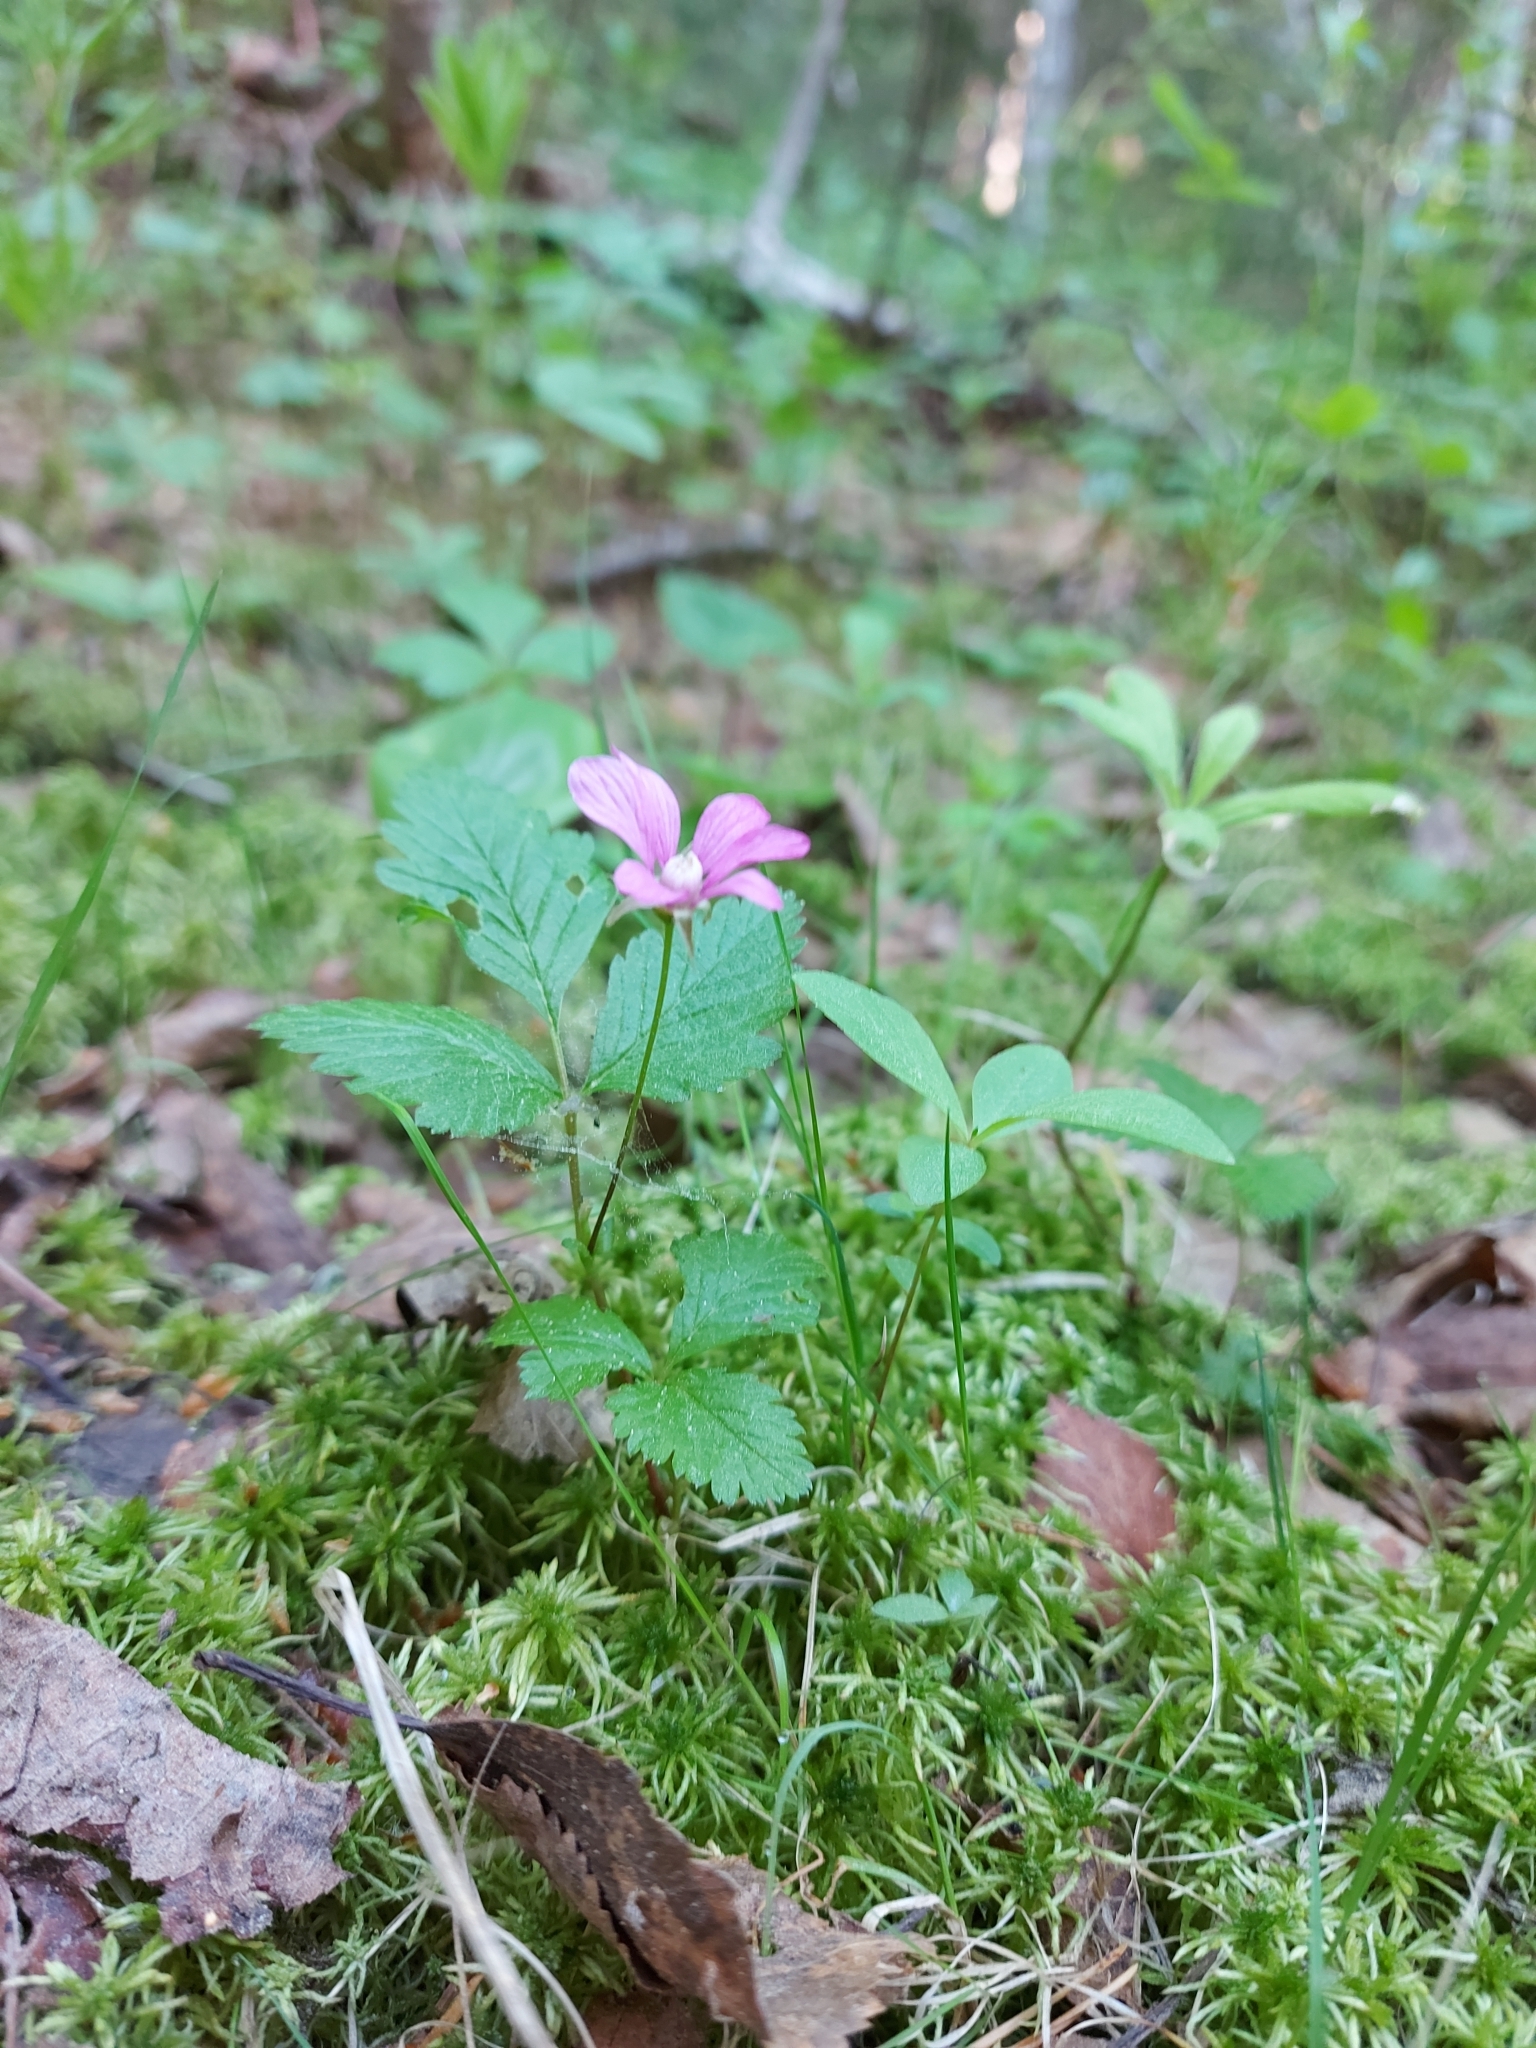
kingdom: Plantae
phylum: Tracheophyta
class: Magnoliopsida
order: Rosales
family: Rosaceae
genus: Rubus
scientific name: Rubus arcticus
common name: Arctic bramble
